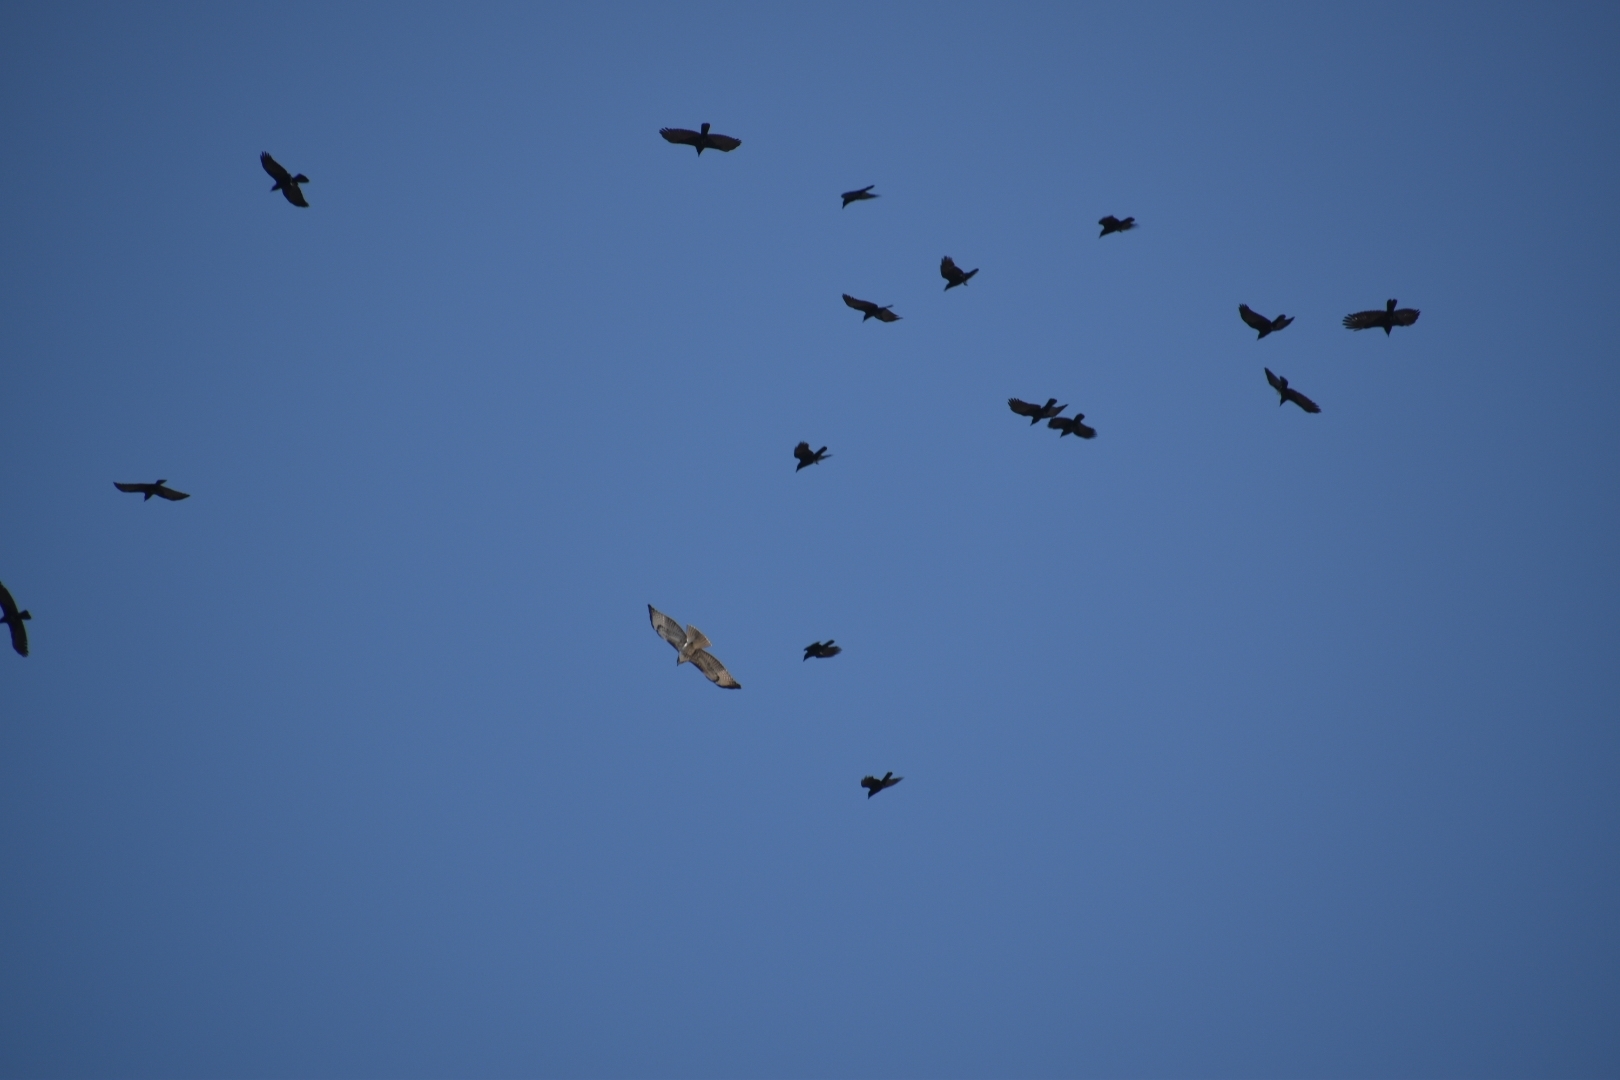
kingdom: Animalia
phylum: Chordata
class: Aves
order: Accipitriformes
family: Accipitridae
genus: Buteo
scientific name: Buteo jamaicensis
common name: Red-tailed hawk
